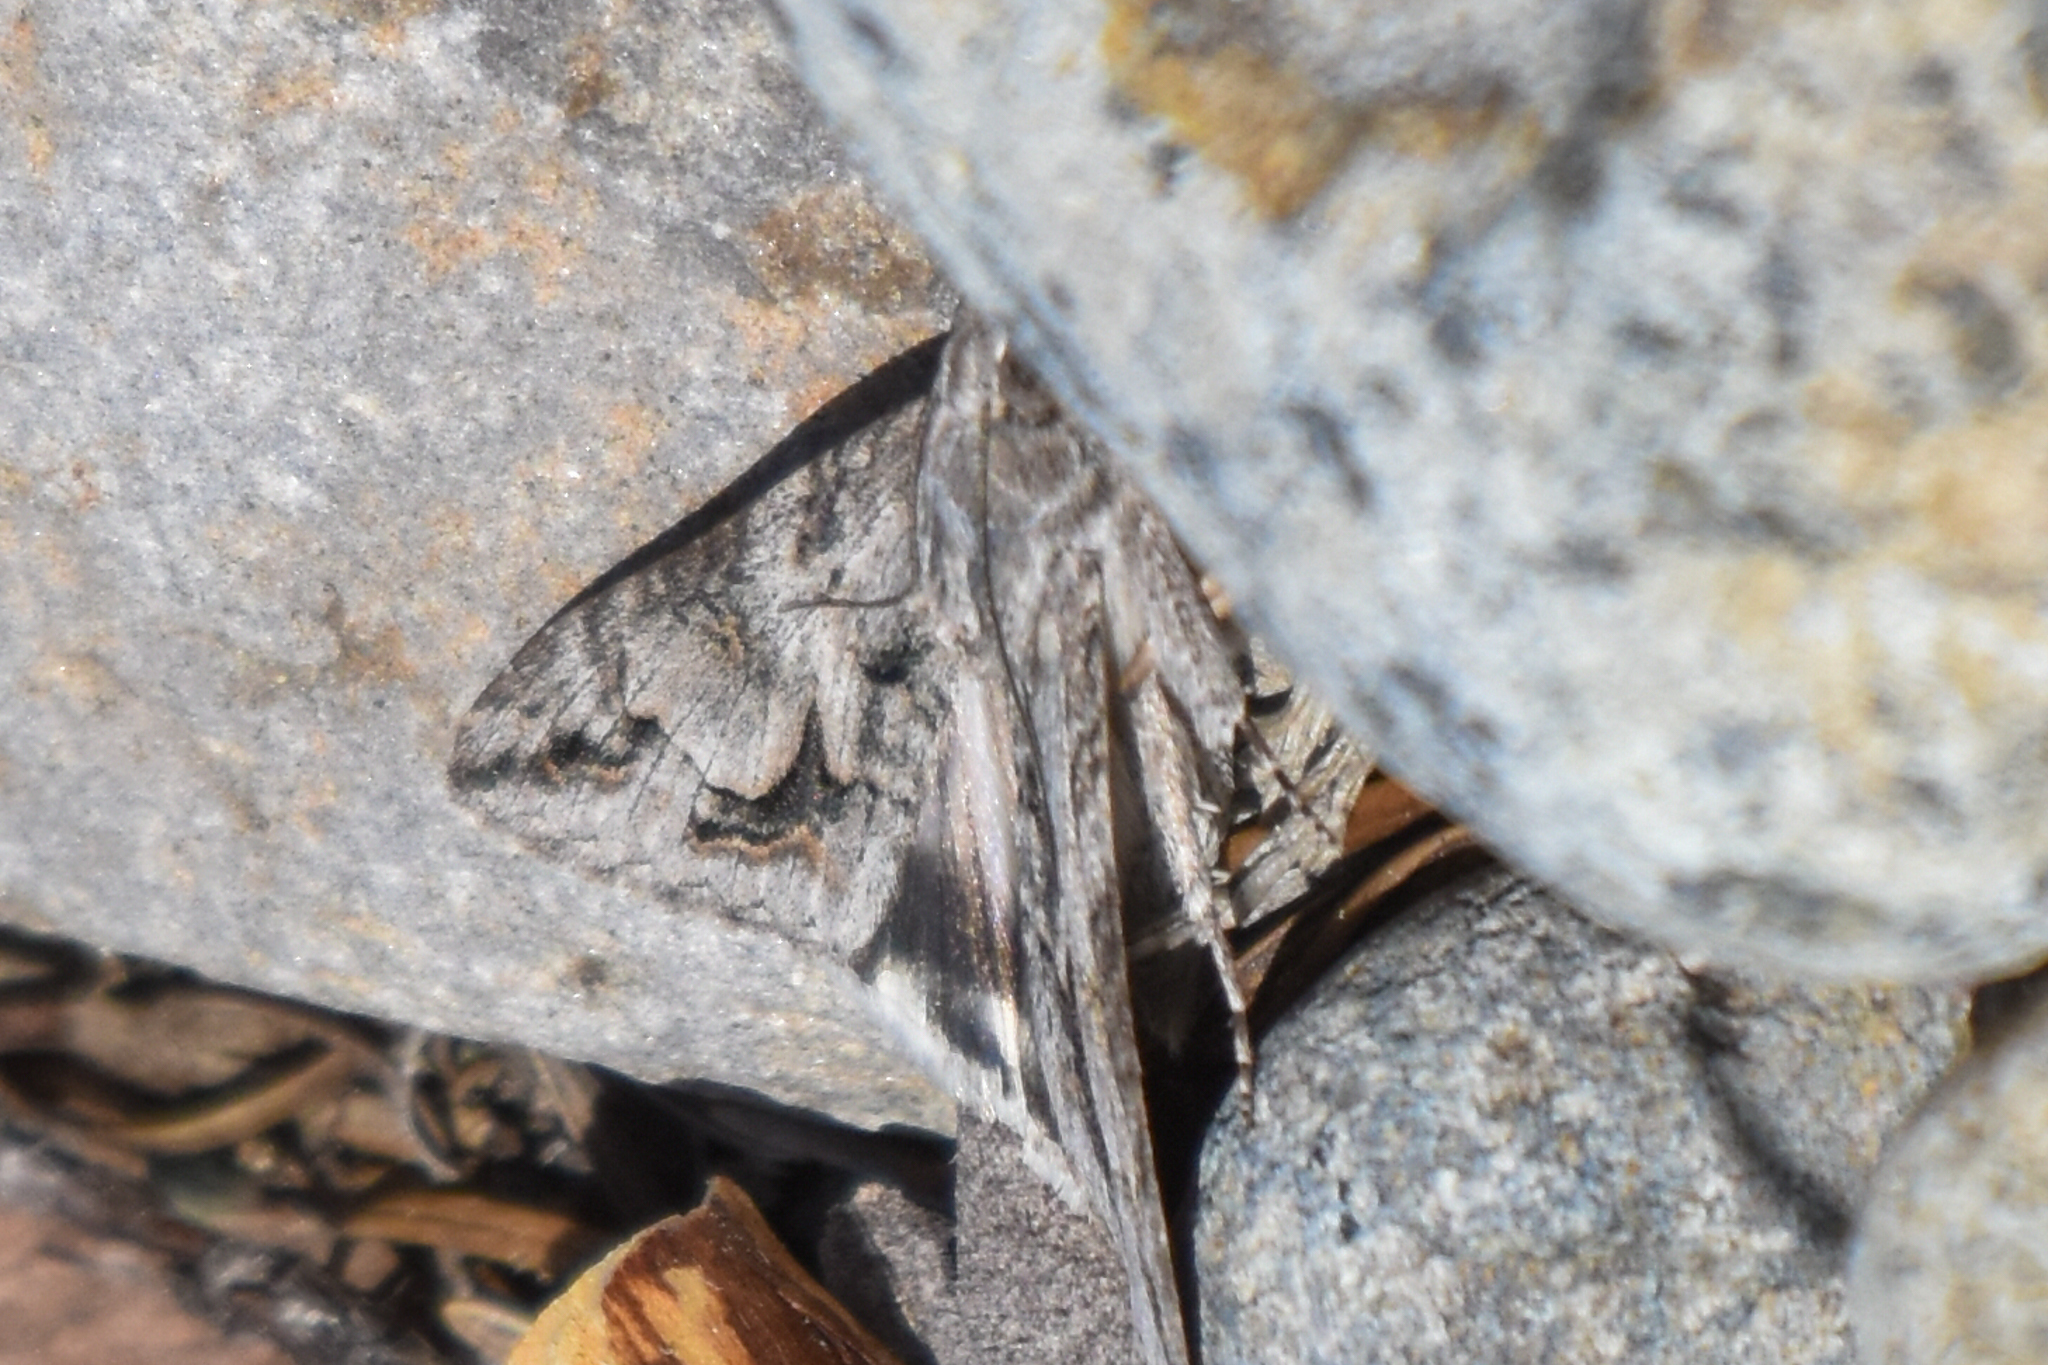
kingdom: Animalia
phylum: Arthropoda
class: Insecta
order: Lepidoptera
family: Erebidae
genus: Melipotis
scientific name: Melipotis jucunda
